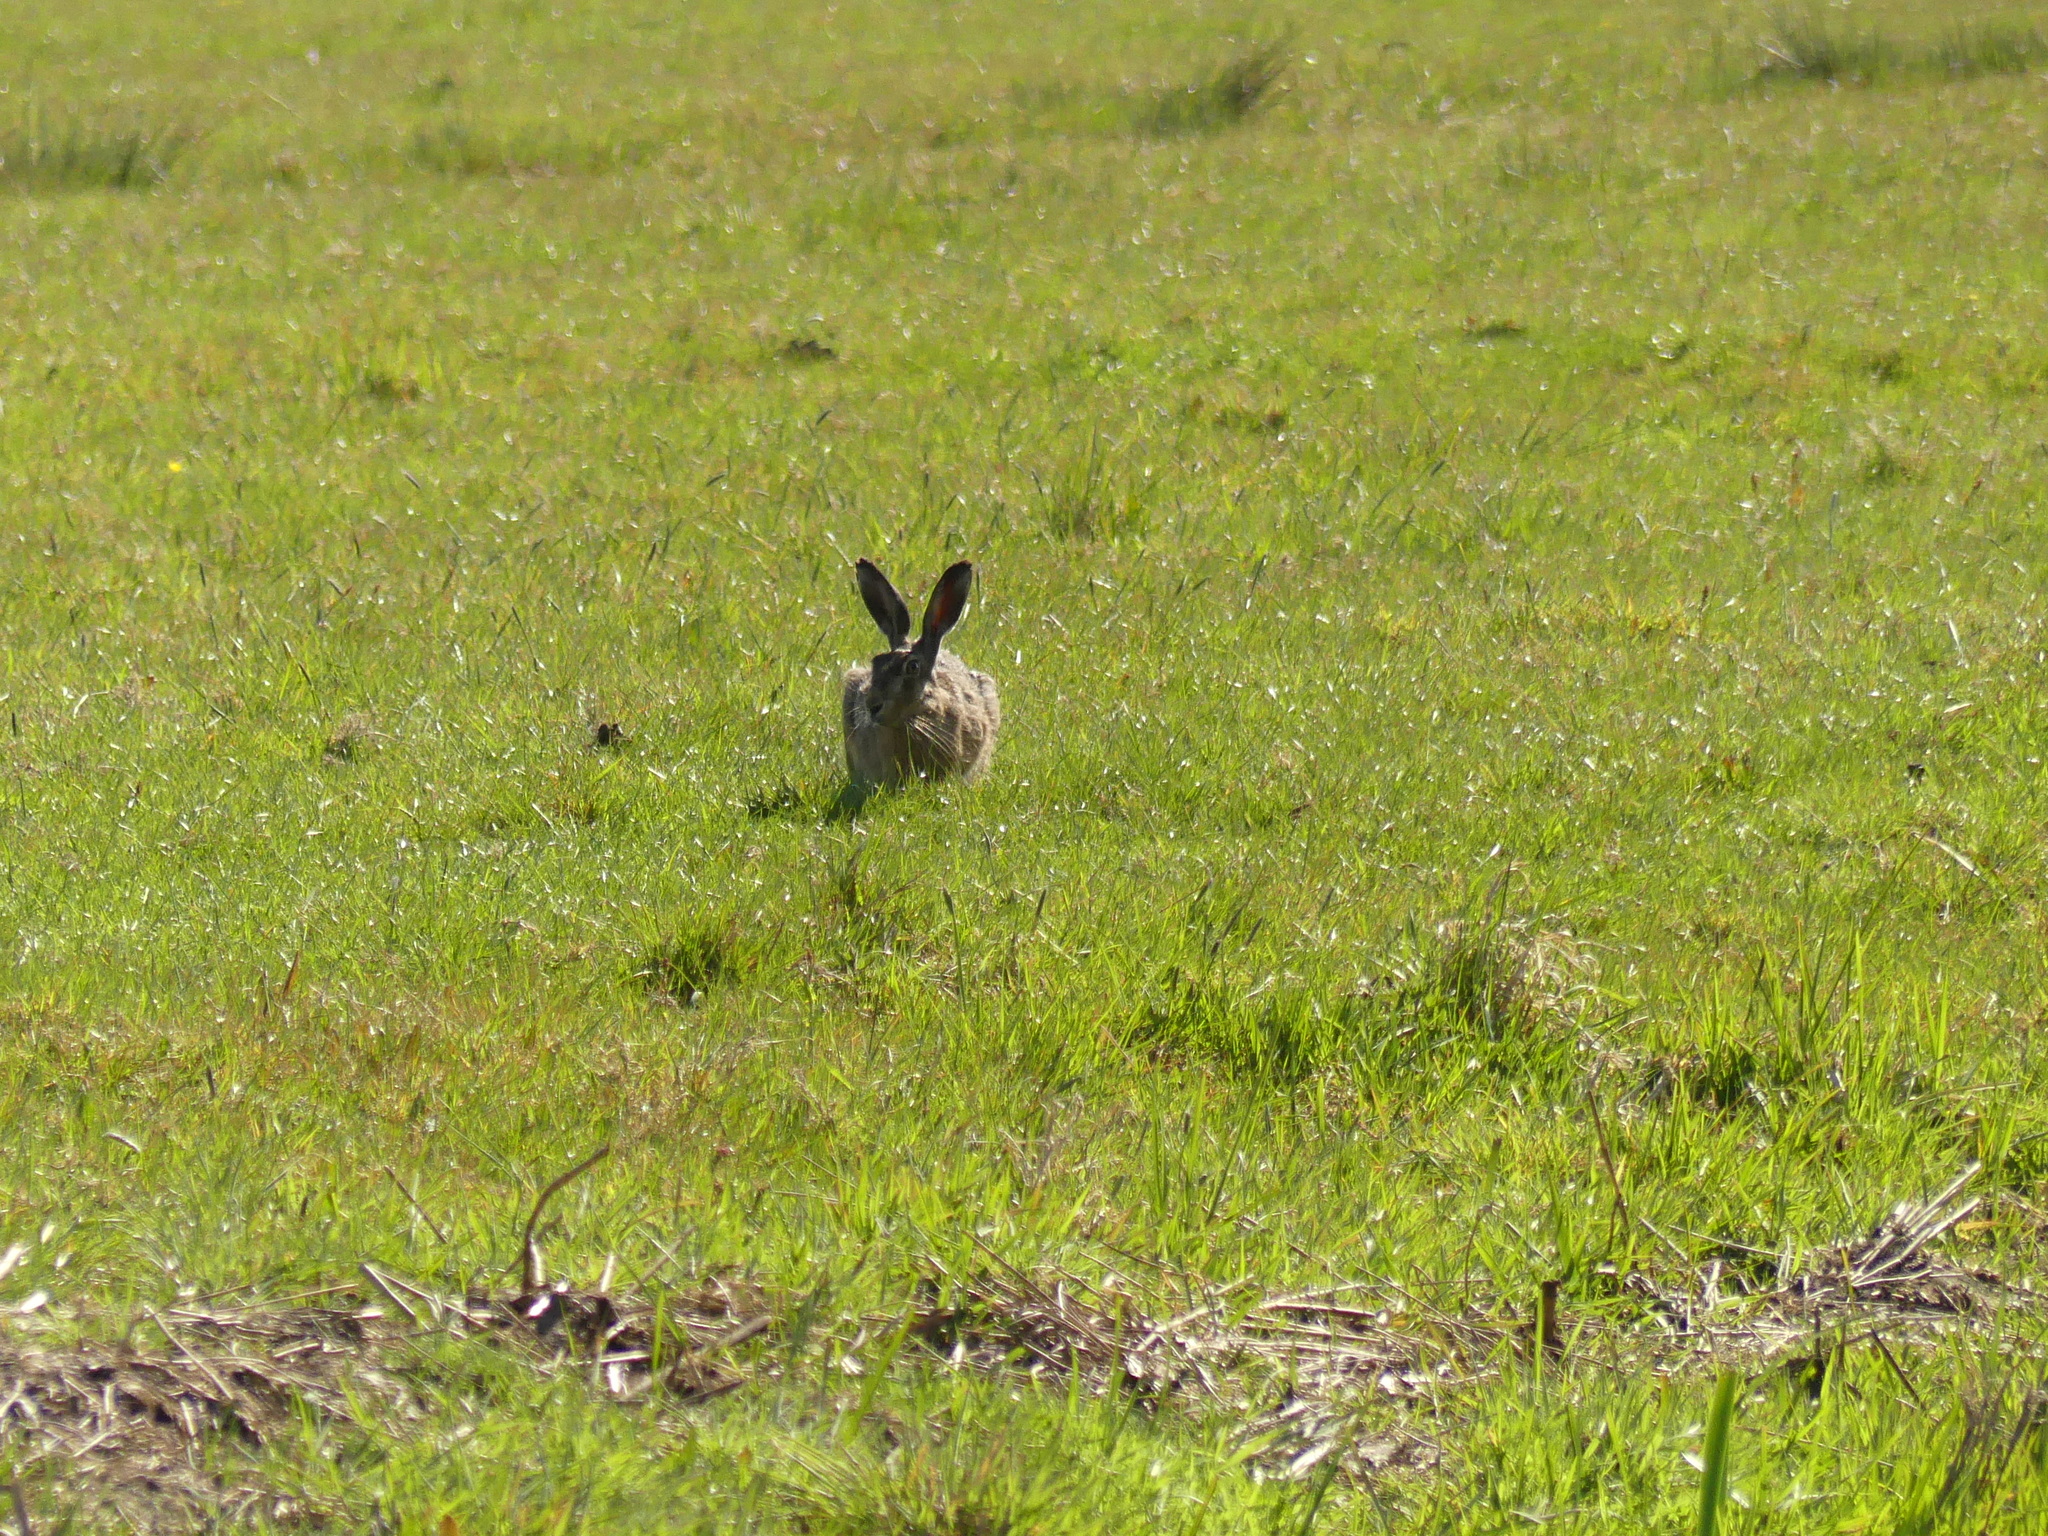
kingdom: Animalia
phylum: Chordata
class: Mammalia
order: Lagomorpha
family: Leporidae
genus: Lepus
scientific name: Lepus europaeus
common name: European hare
